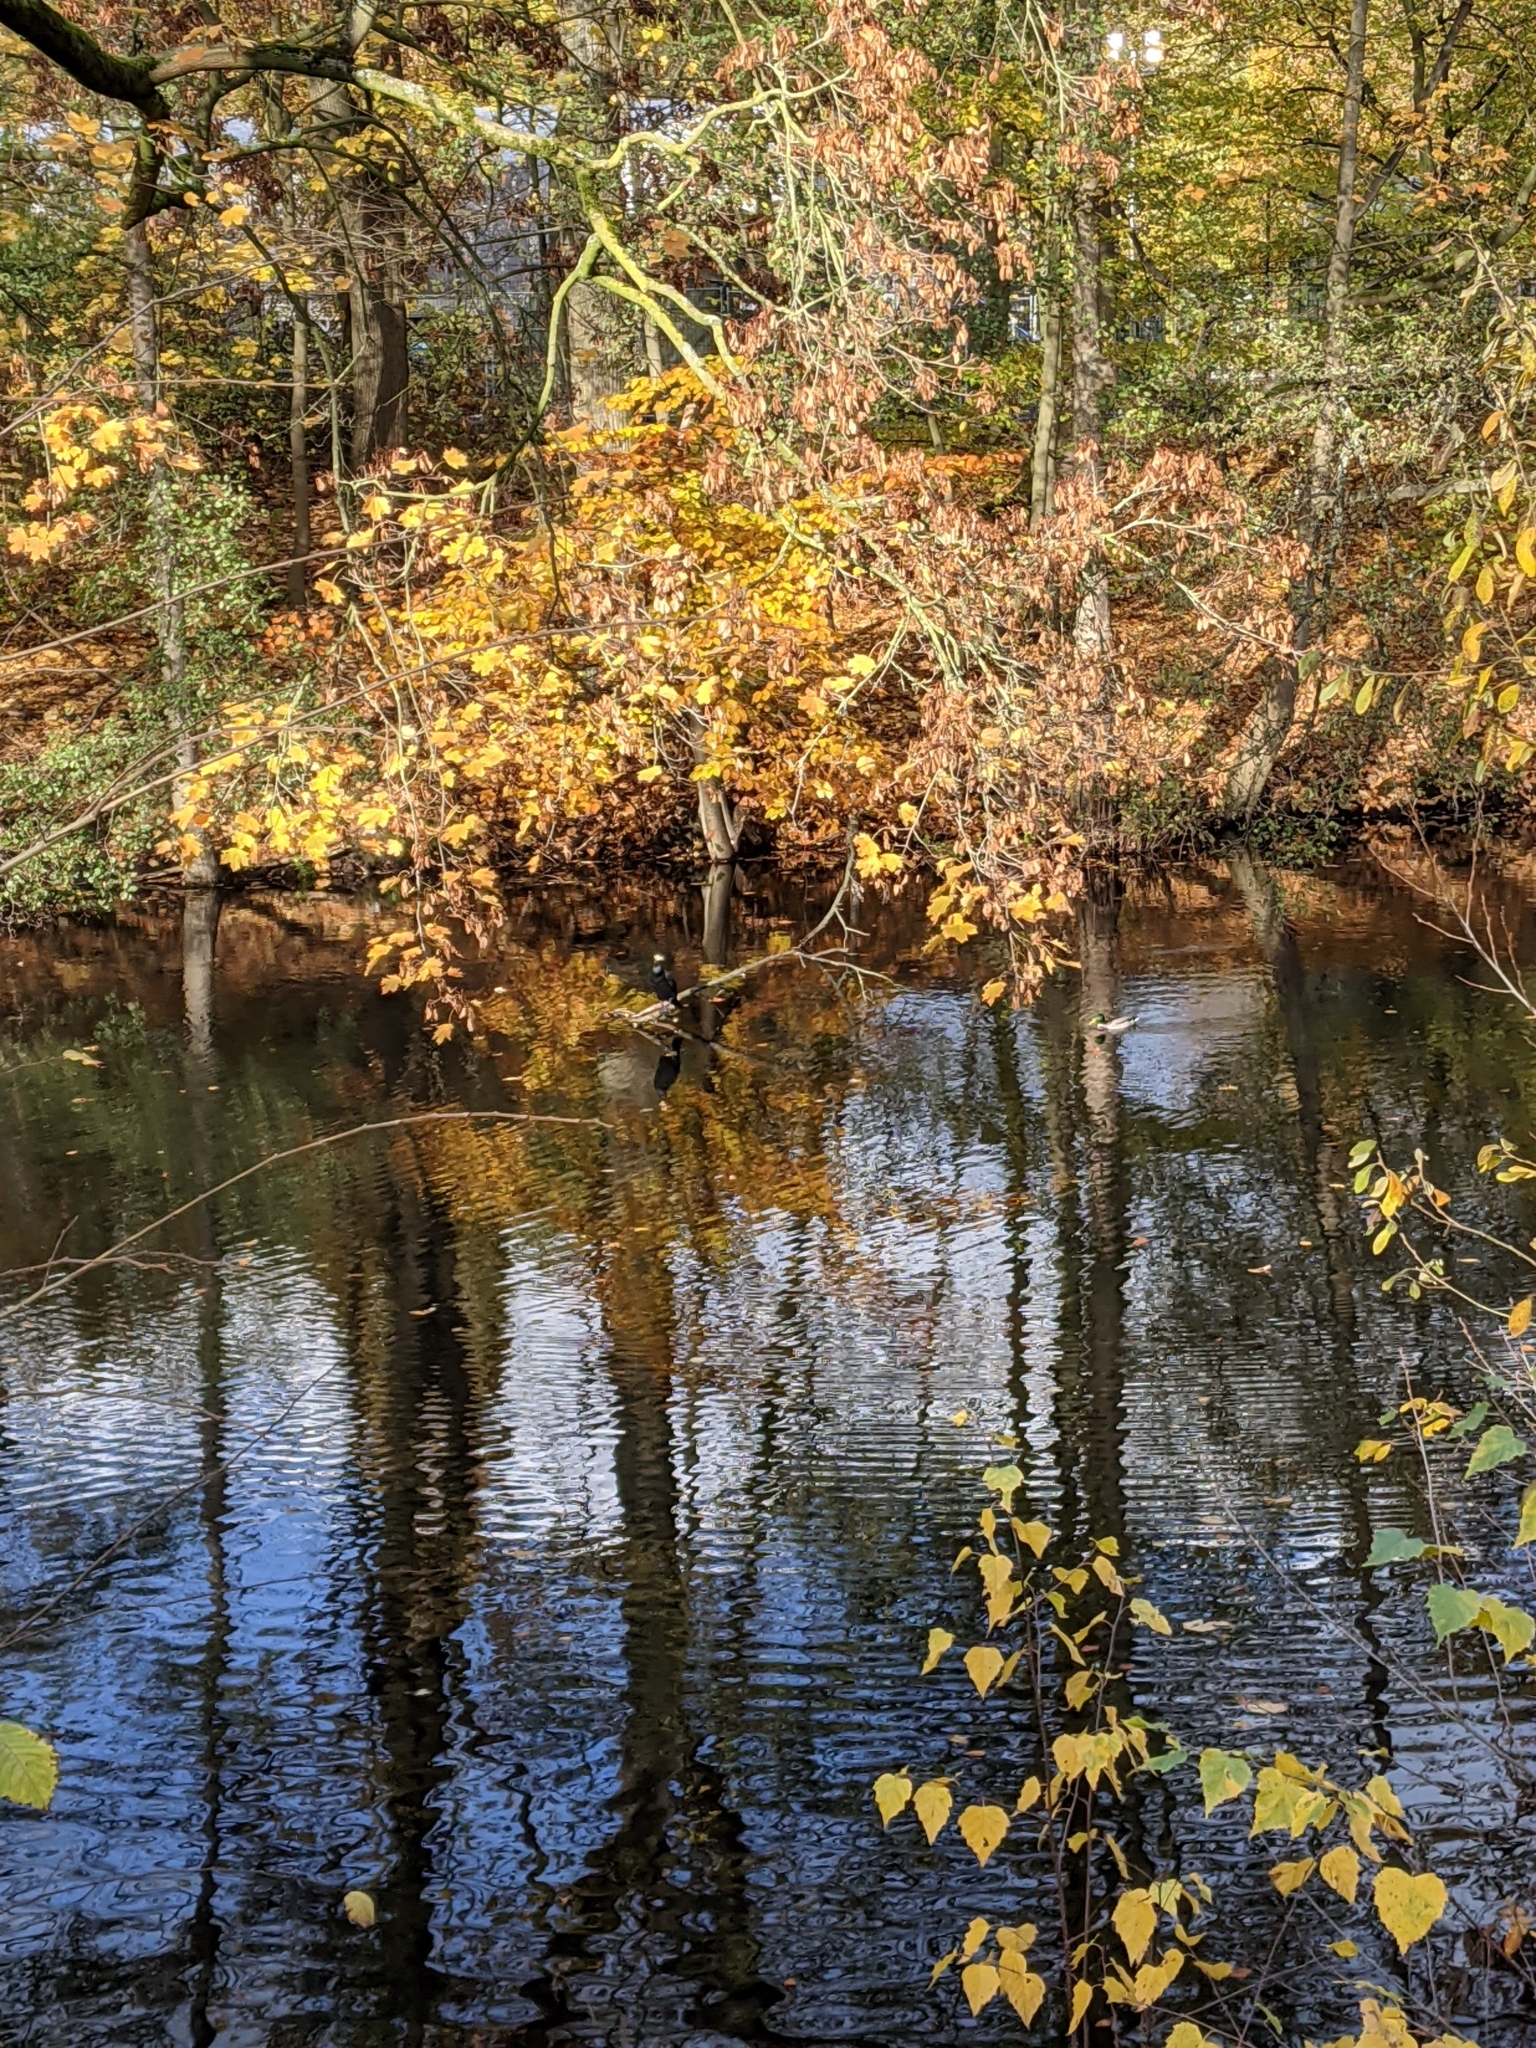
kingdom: Animalia
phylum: Chordata
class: Aves
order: Suliformes
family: Phalacrocoracidae
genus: Phalacrocorax
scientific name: Phalacrocorax carbo
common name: Great cormorant
